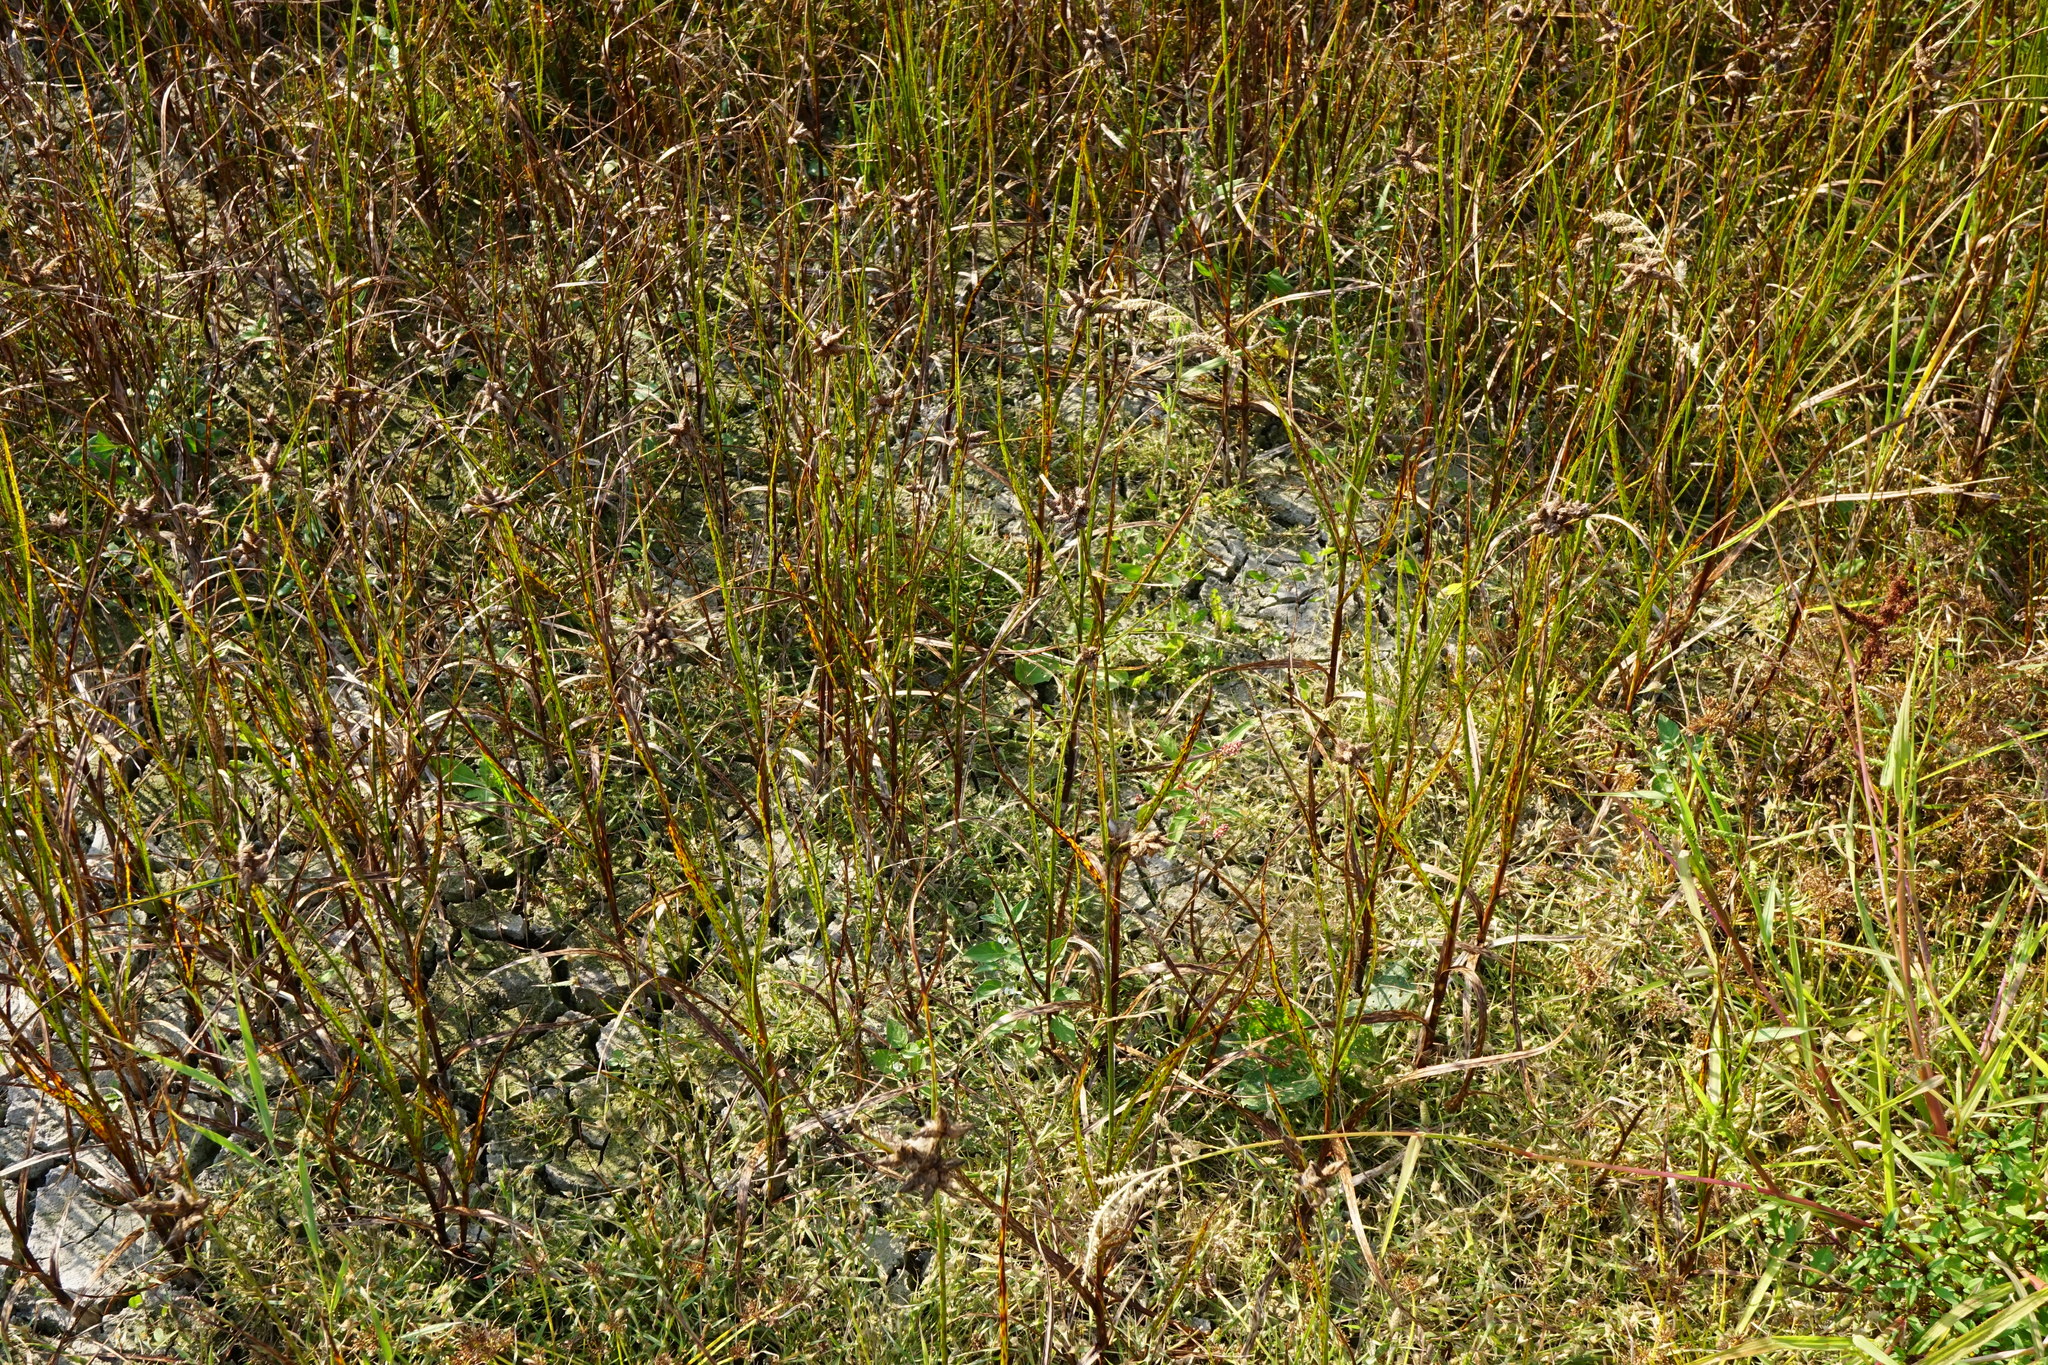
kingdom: Plantae
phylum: Tracheophyta
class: Liliopsida
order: Poales
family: Cyperaceae
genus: Bolboschoenus
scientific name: Bolboschoenus maritimus
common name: Sea club-rush
